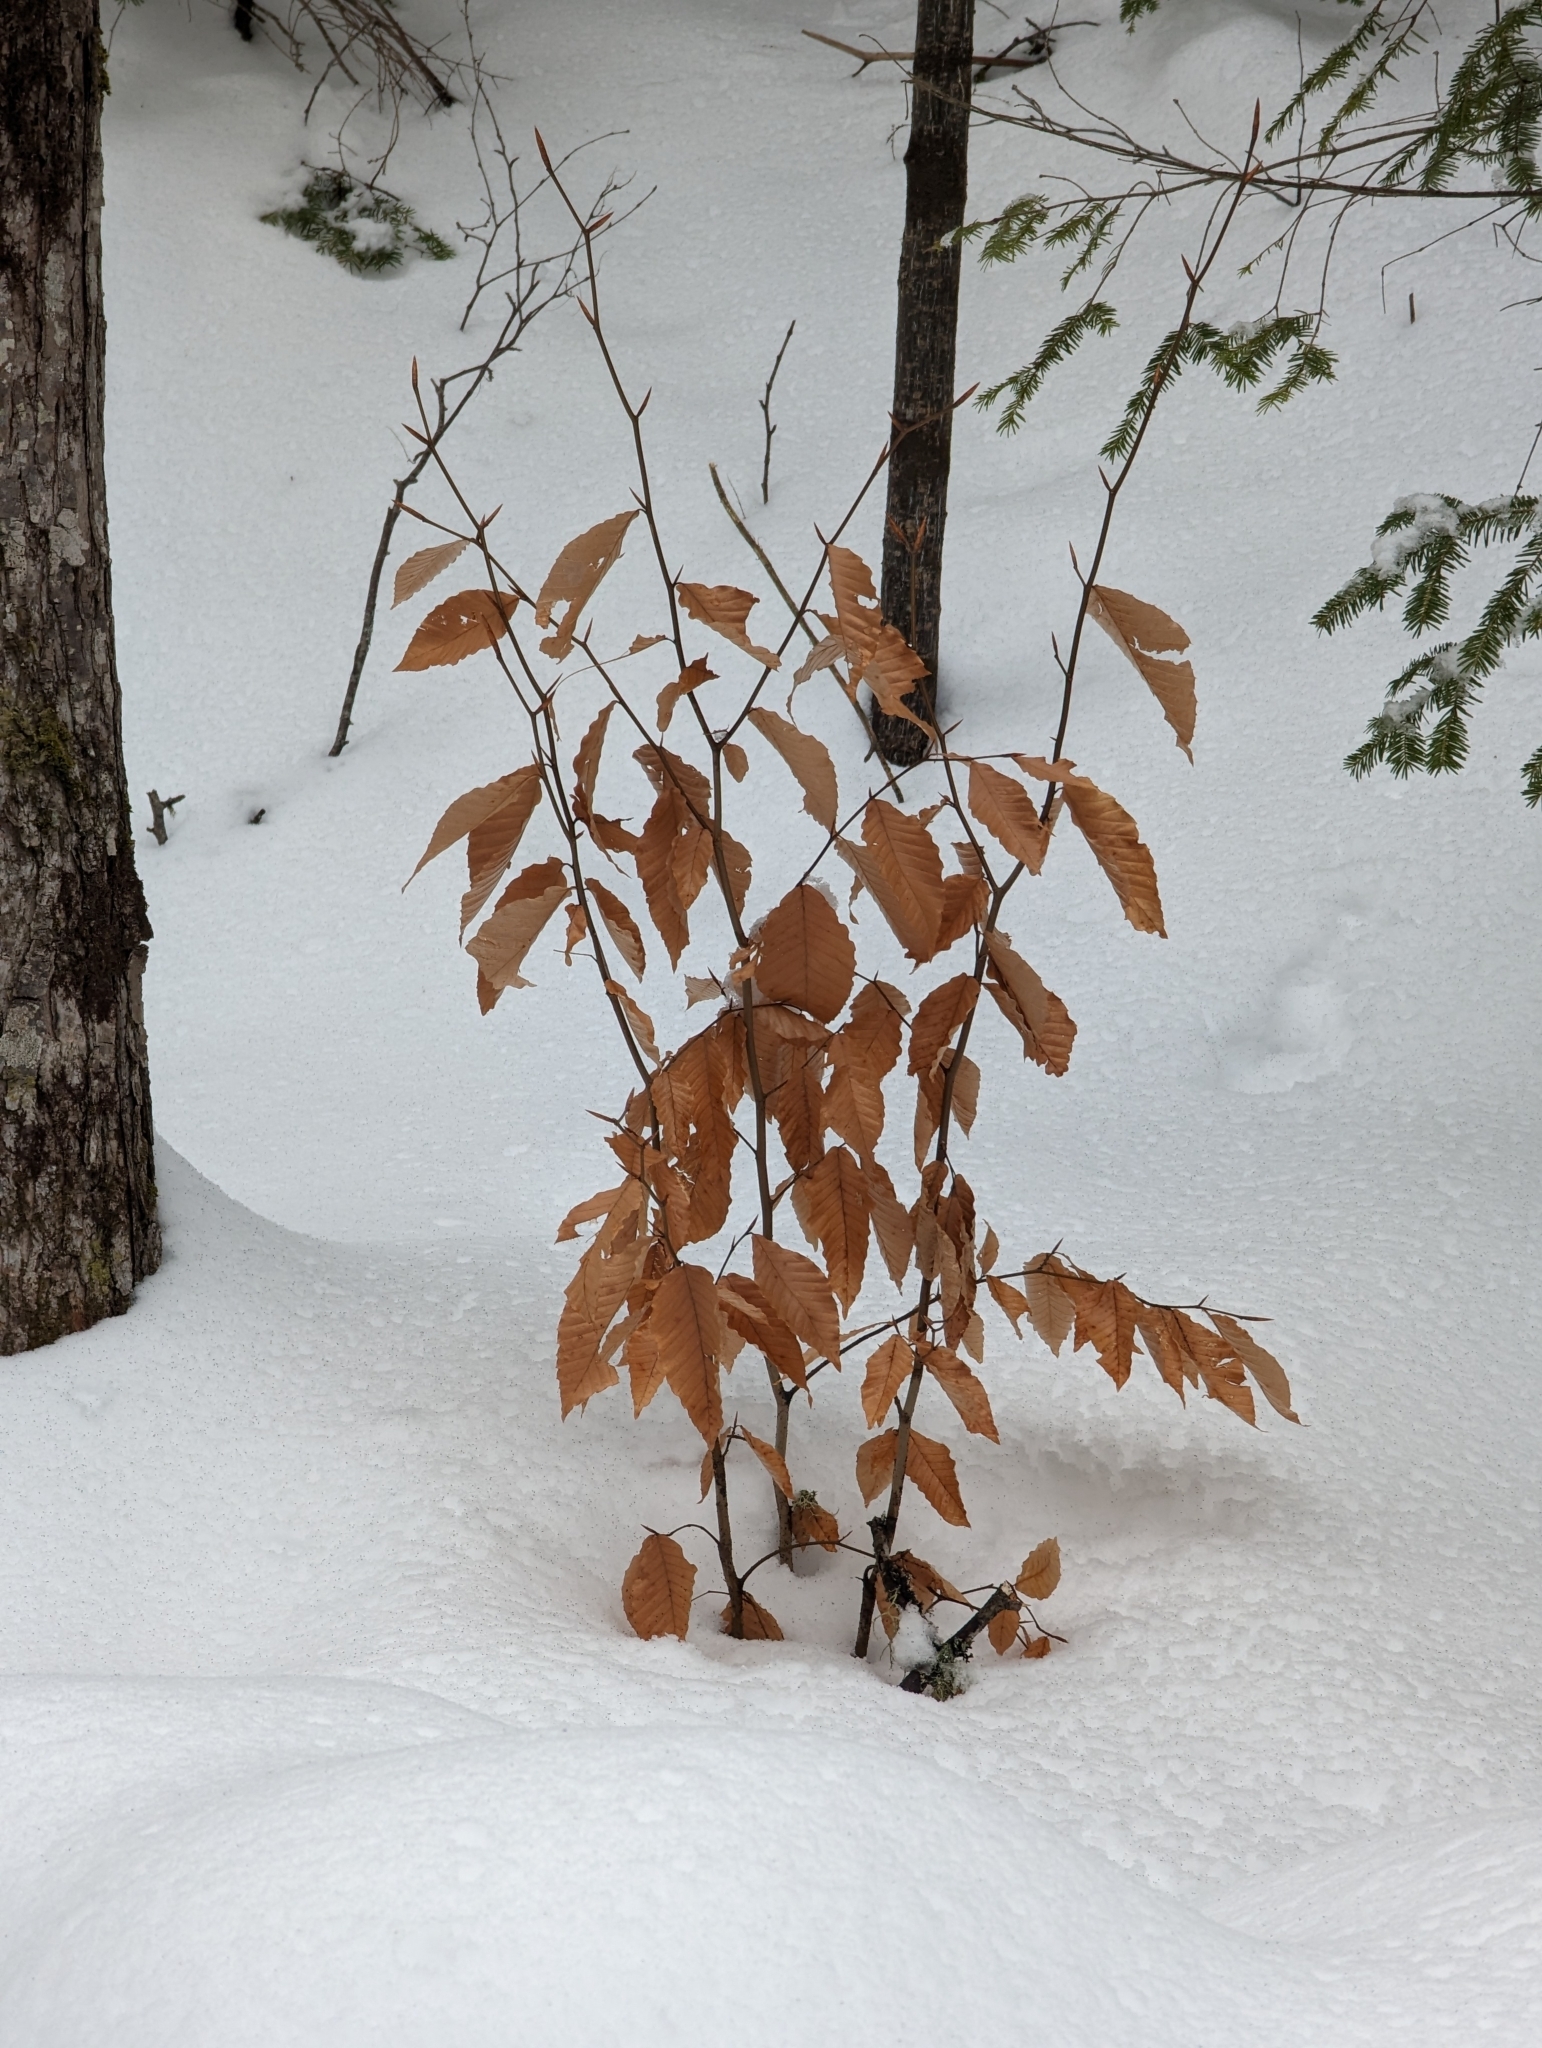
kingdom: Plantae
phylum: Tracheophyta
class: Magnoliopsida
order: Fagales
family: Fagaceae
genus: Fagus
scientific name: Fagus grandifolia
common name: American beech
